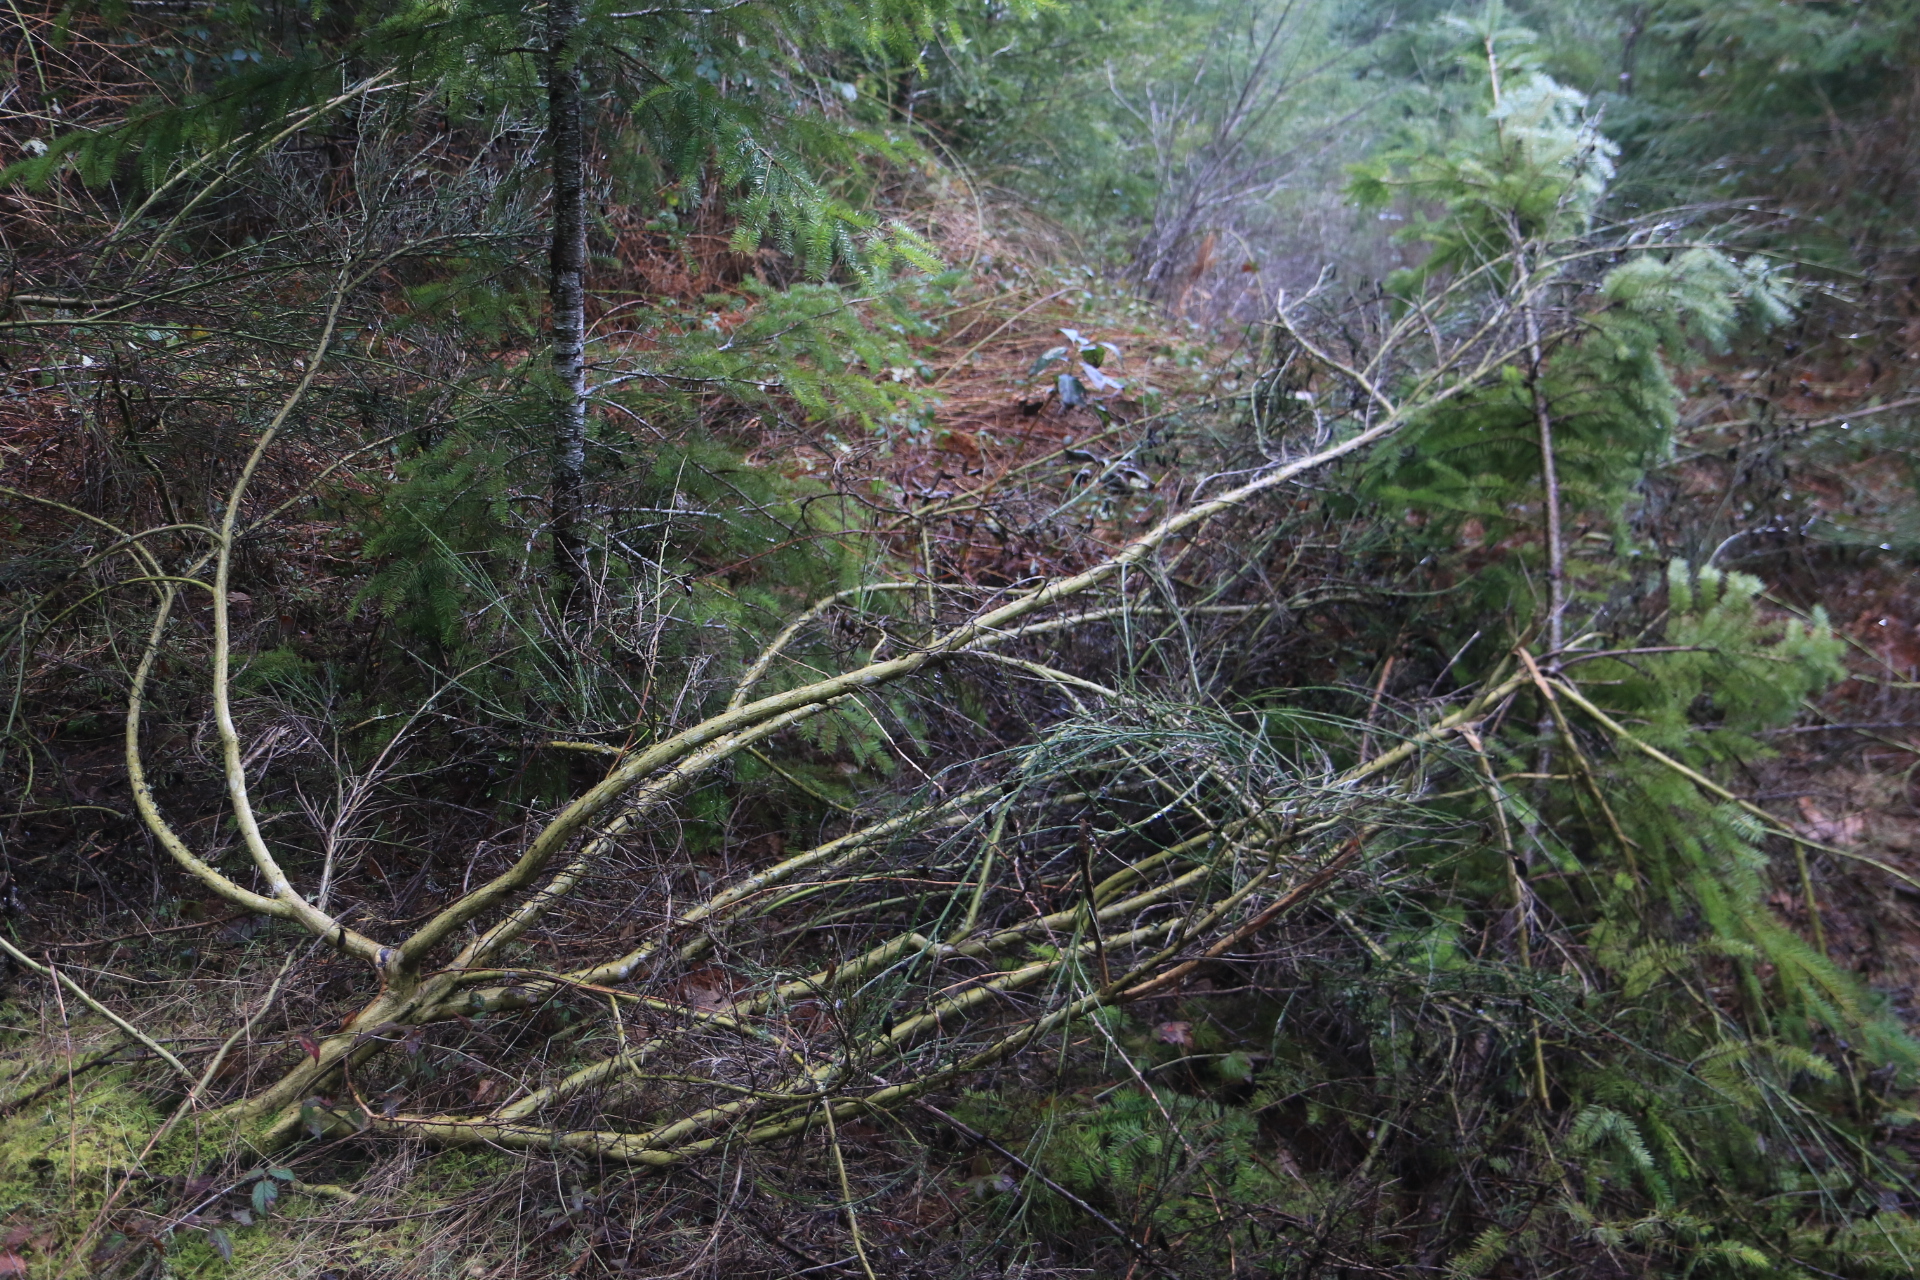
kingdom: Plantae
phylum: Tracheophyta
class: Magnoliopsida
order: Fabales
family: Fabaceae
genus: Cytisus
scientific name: Cytisus scoparius
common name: Scotch broom
